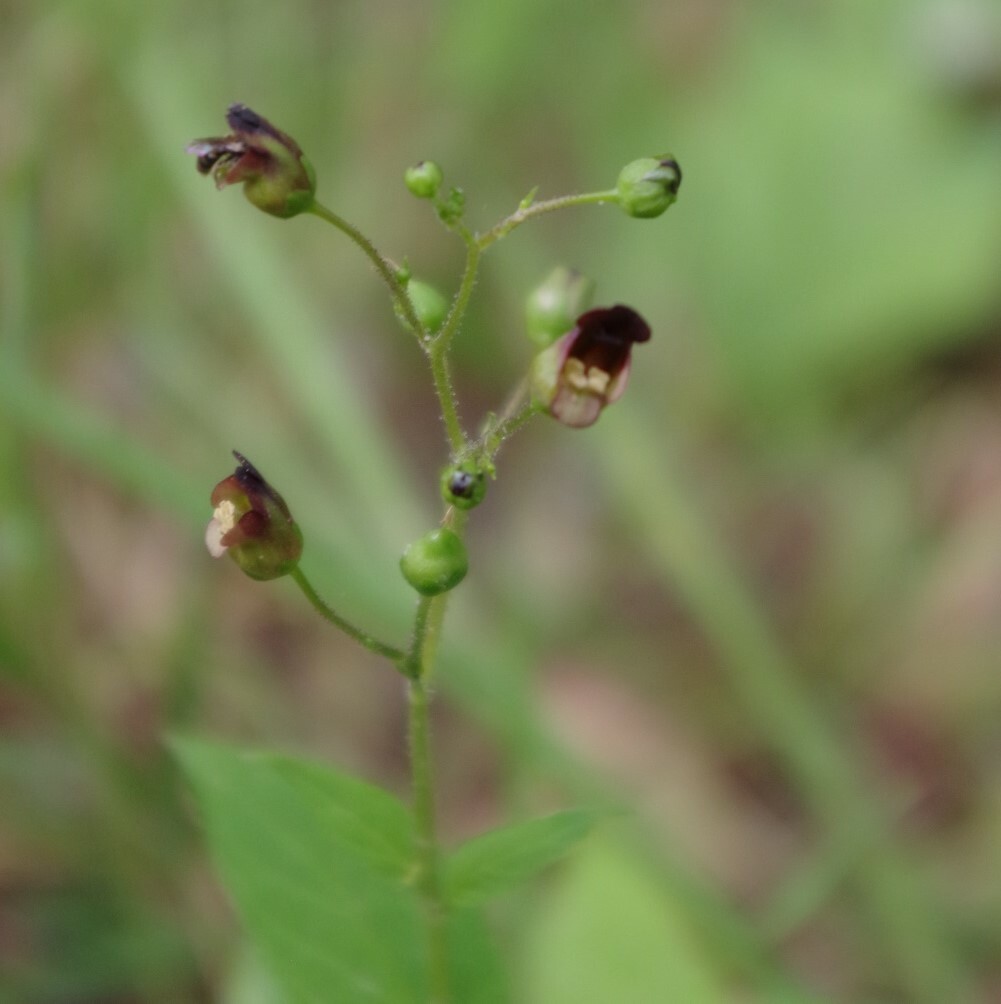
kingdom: Plantae
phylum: Tracheophyta
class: Magnoliopsida
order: Lamiales
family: Scrophulariaceae
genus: Scrophularia
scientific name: Scrophularia nodosa
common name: Common figwort
